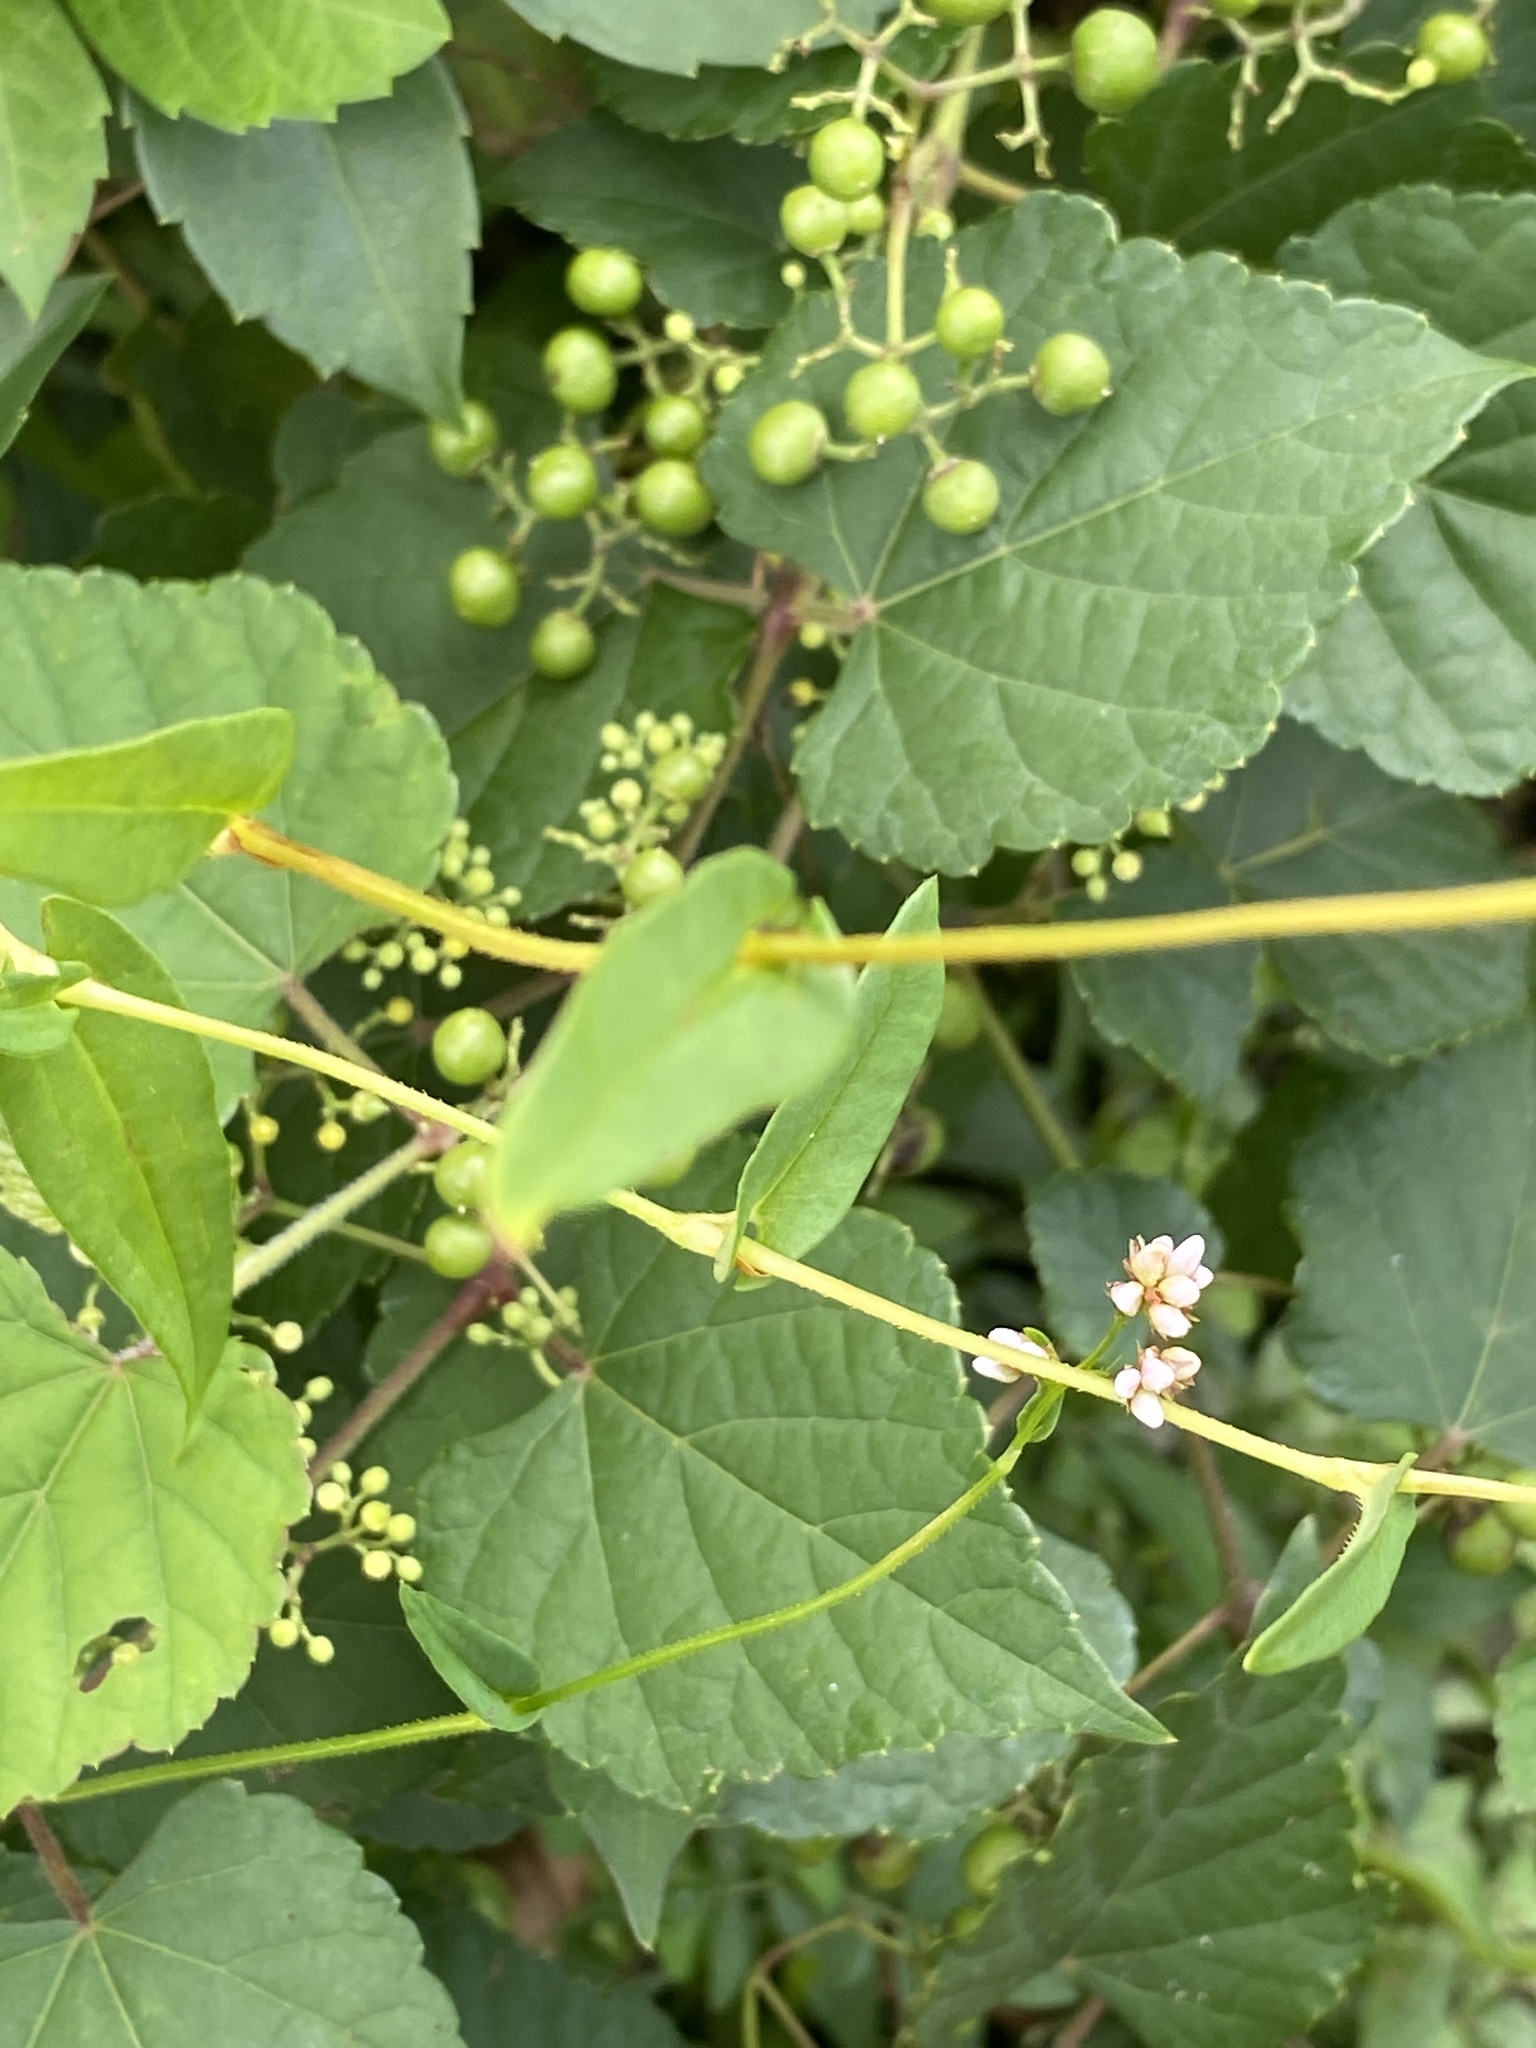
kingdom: Plantae
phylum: Tracheophyta
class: Magnoliopsida
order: Caryophyllales
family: Polygonaceae
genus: Persicaria
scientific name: Persicaria sagittata
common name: American tearthumb
